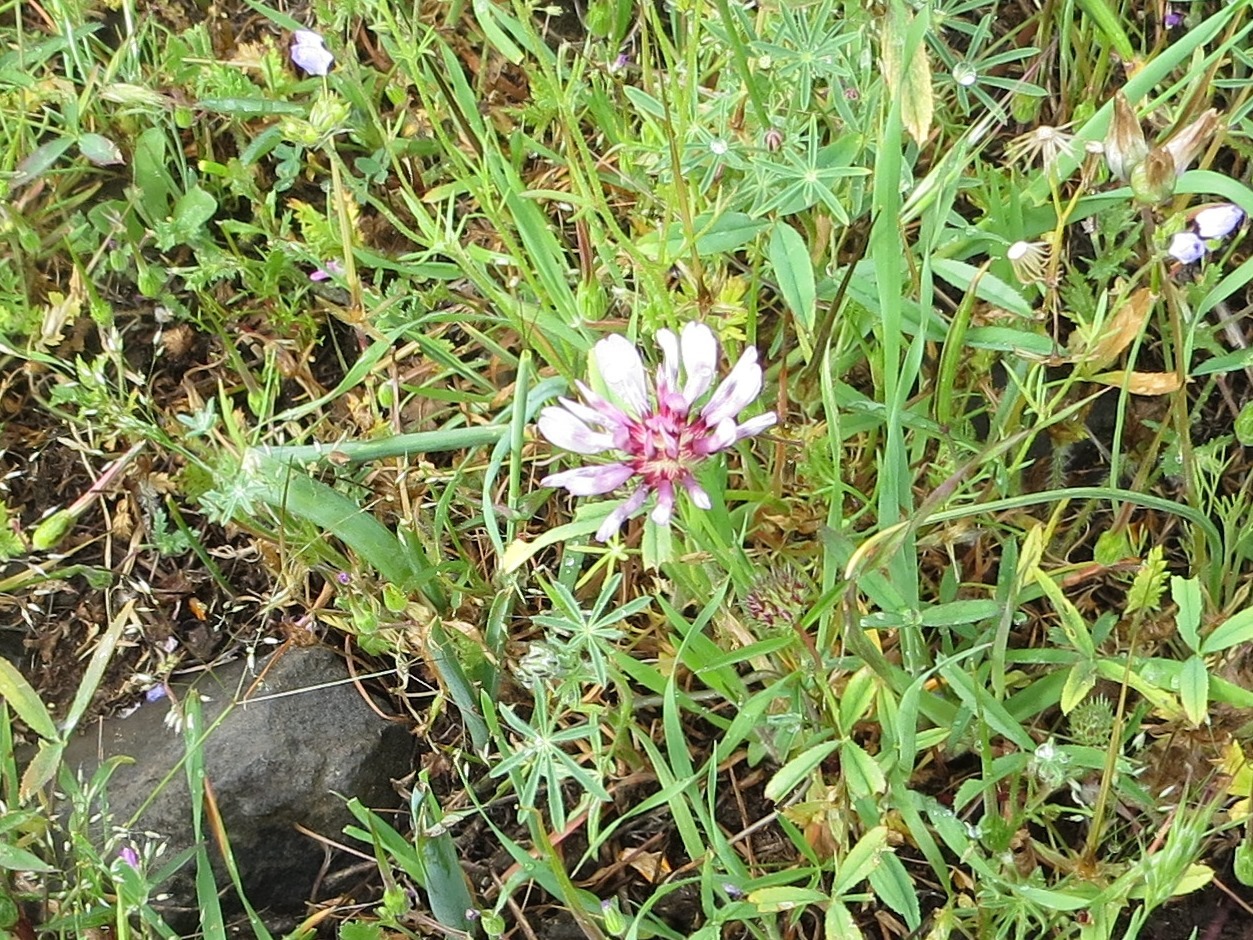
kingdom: Plantae
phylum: Tracheophyta
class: Magnoliopsida
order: Fabales
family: Fabaceae
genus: Trifolium
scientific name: Trifolium willdenovii
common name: Tomcat clover
